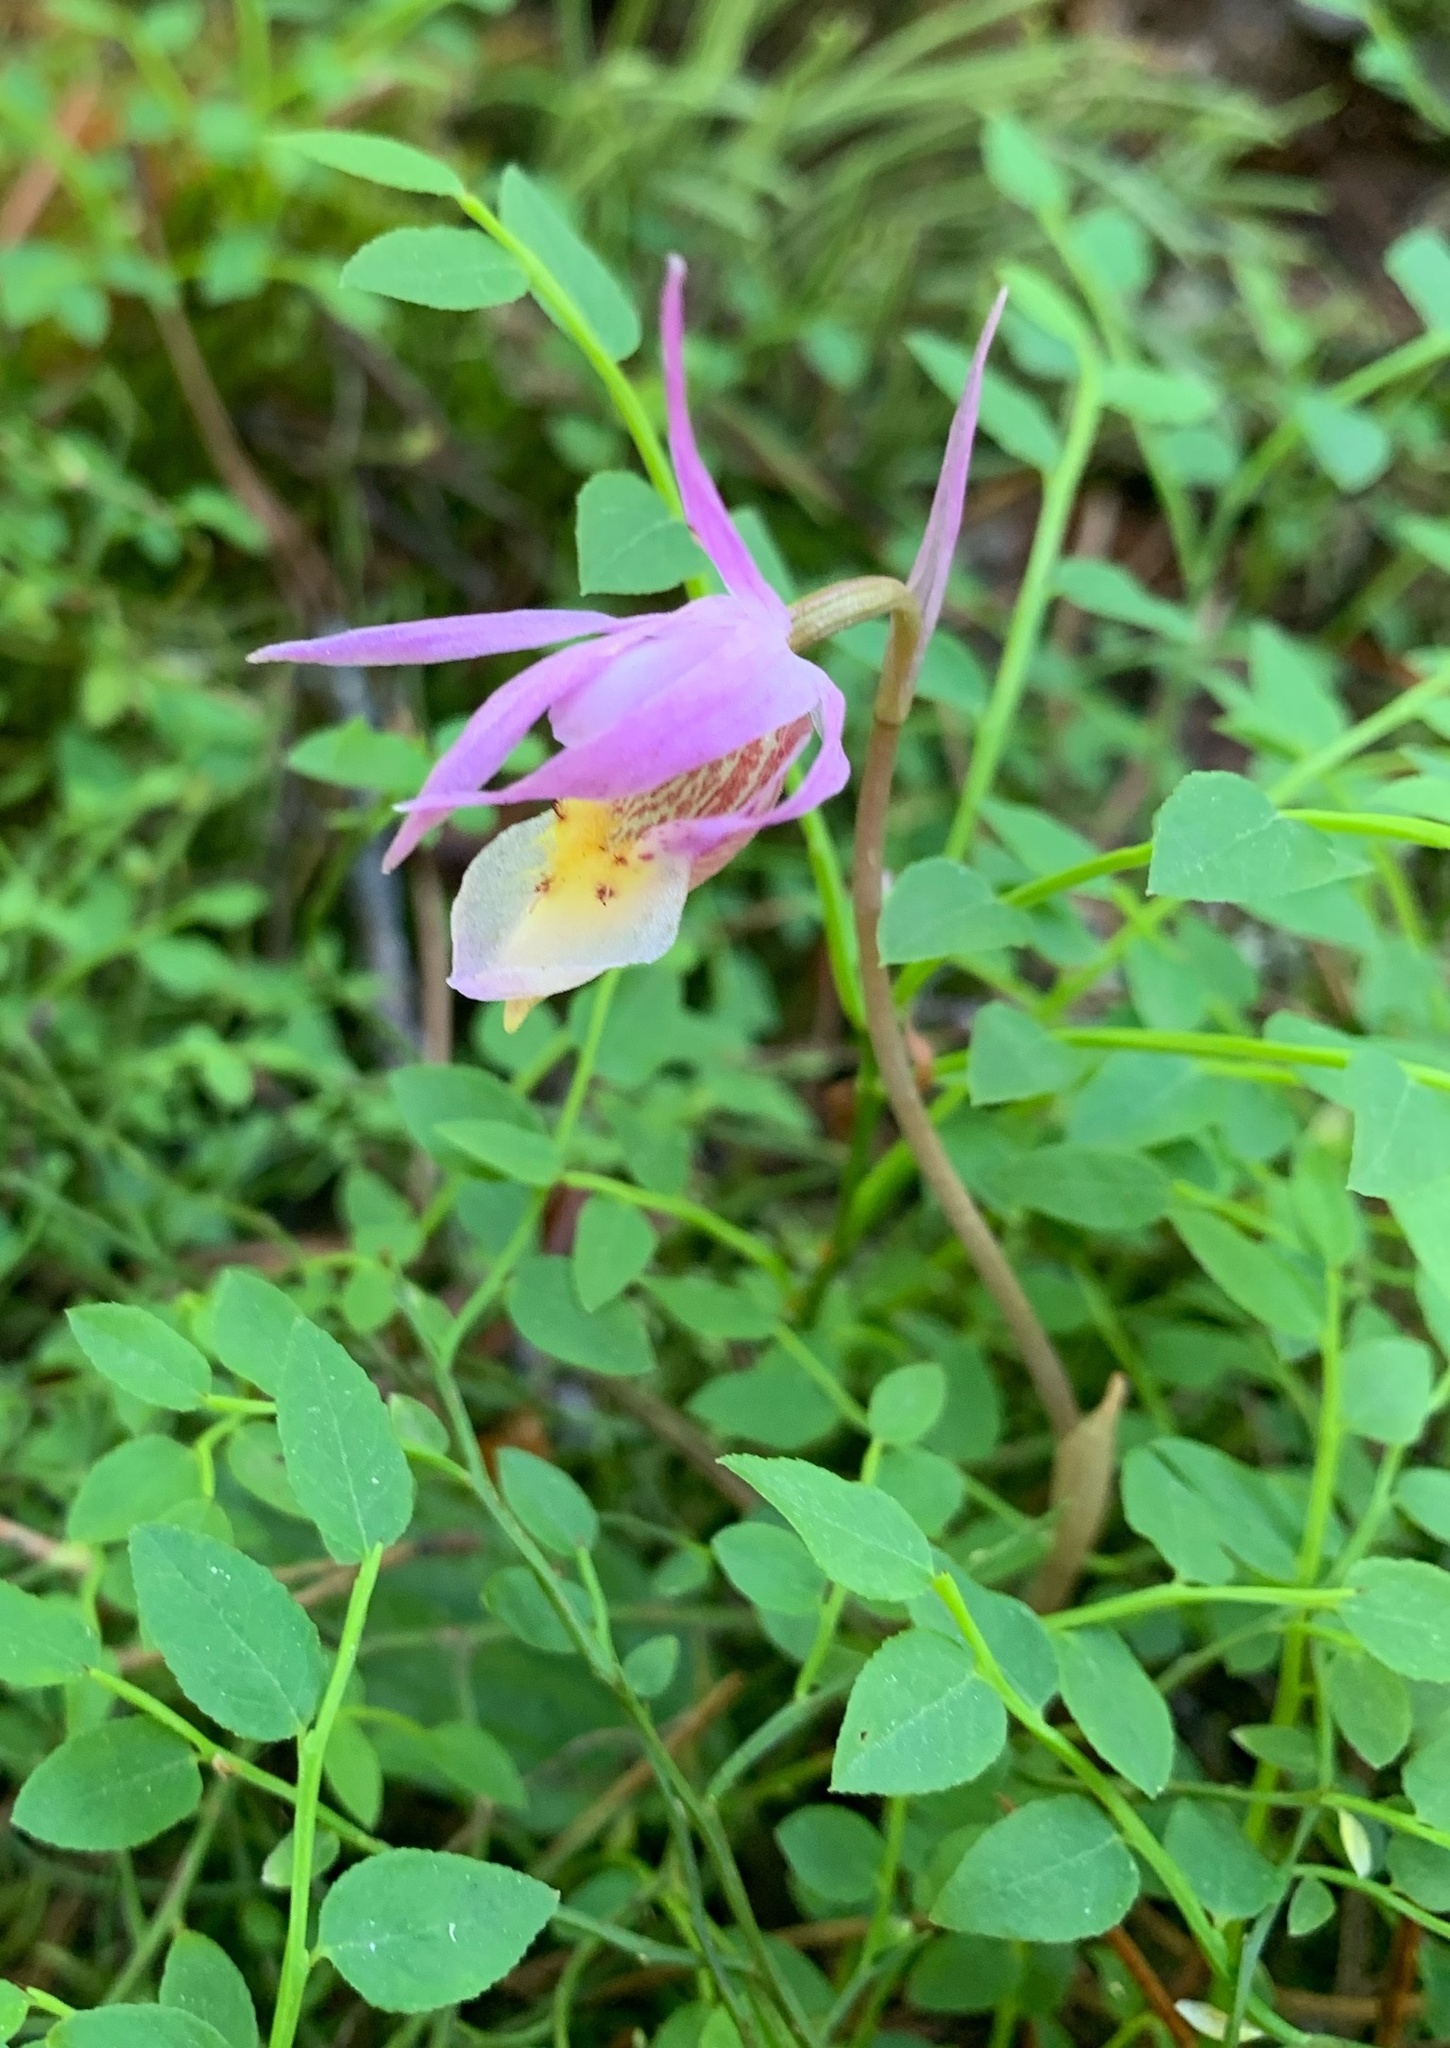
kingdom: Plantae
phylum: Tracheophyta
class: Liliopsida
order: Asparagales
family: Orchidaceae
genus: Calypso
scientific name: Calypso bulbosa
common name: Calypso
